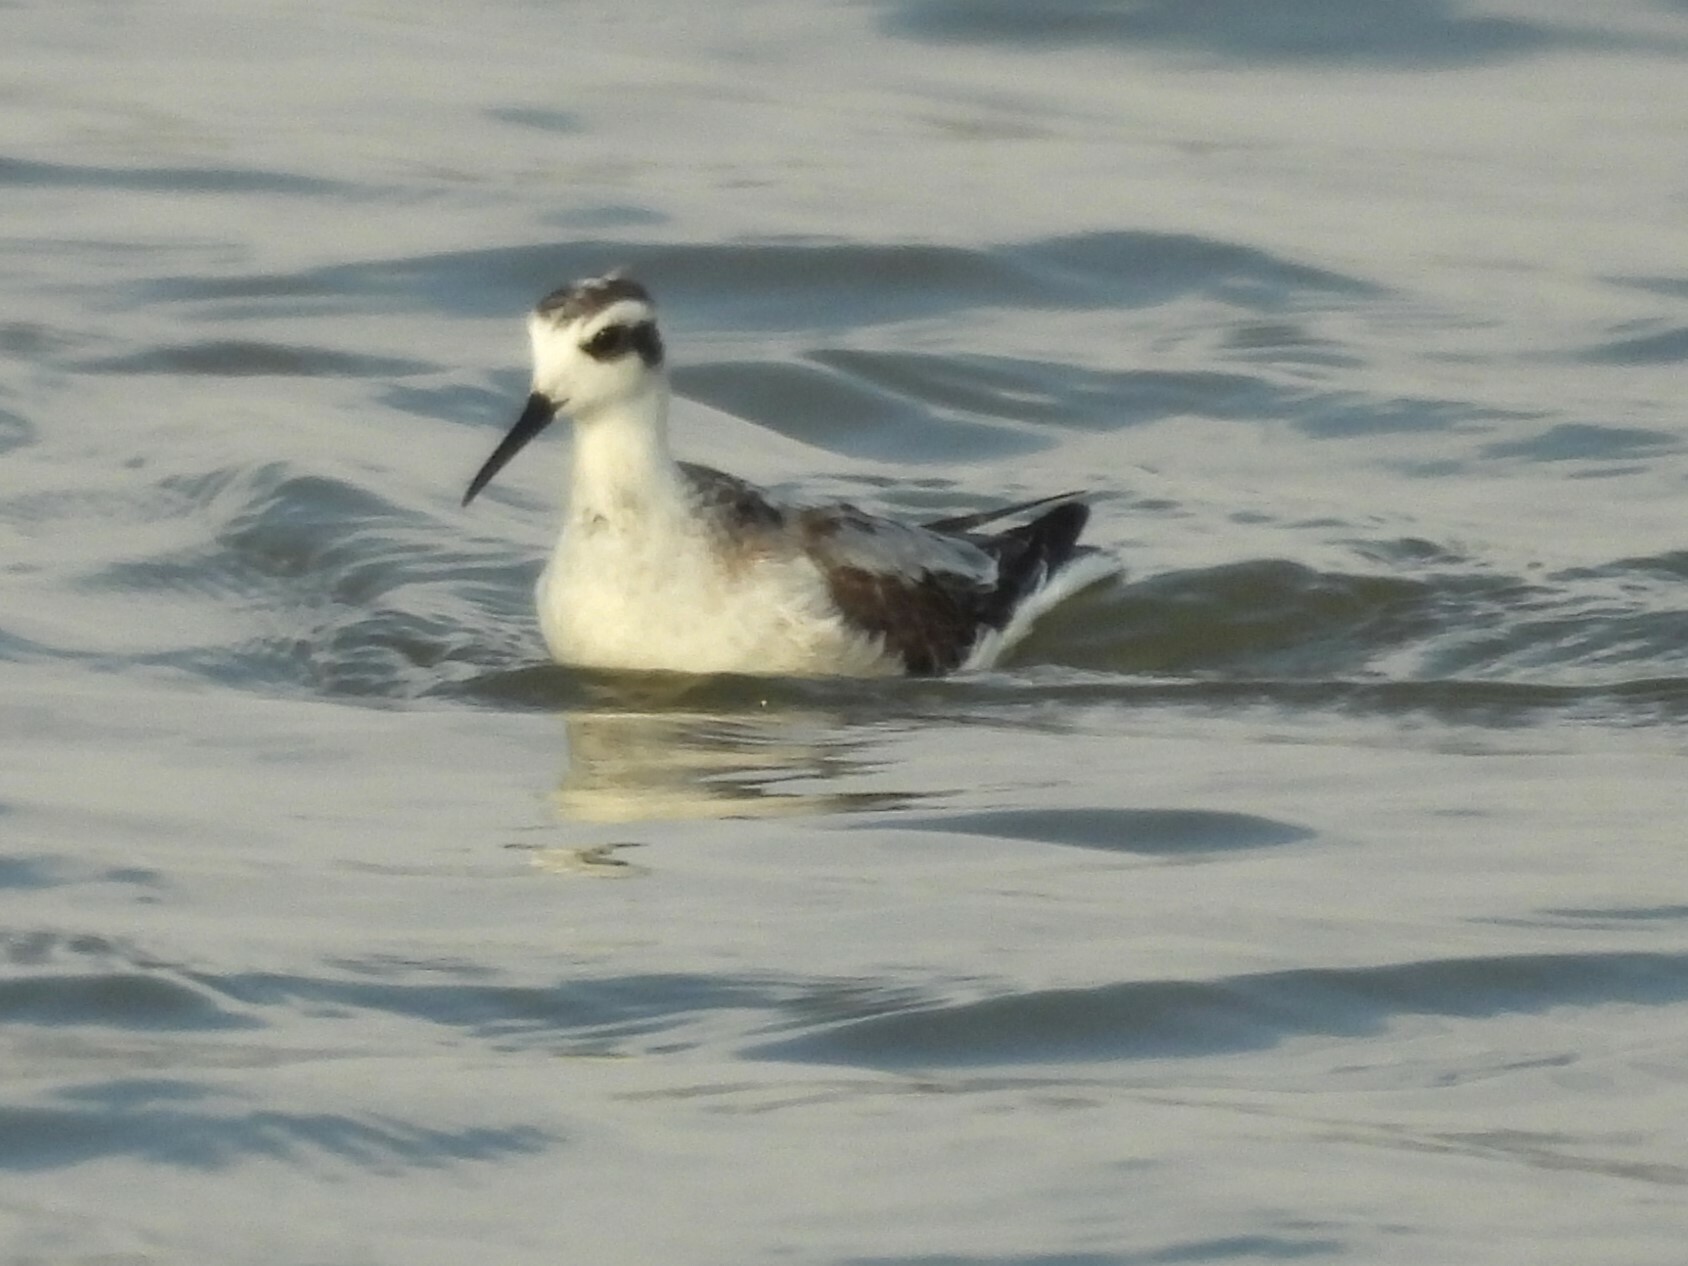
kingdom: Animalia
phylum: Chordata
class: Aves
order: Charadriiformes
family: Scolopacidae
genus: Phalaropus
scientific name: Phalaropus lobatus
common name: Red-necked phalarope
